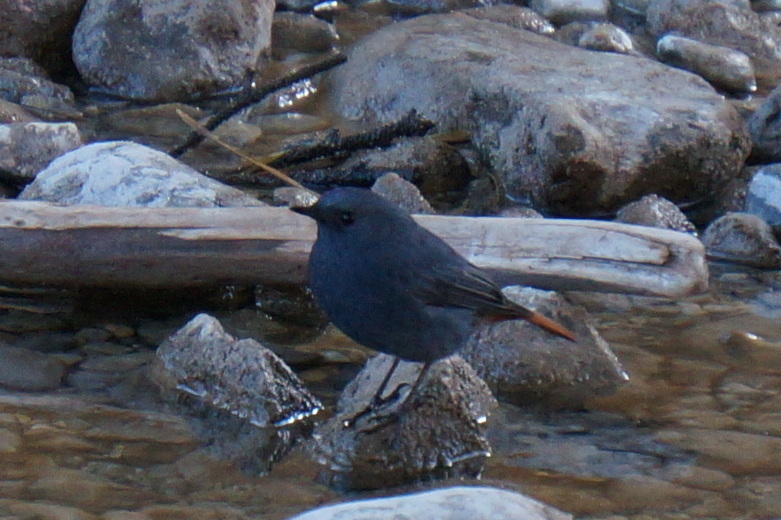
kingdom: Animalia
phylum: Chordata
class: Aves
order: Passeriformes
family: Muscicapidae
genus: Phoenicurus
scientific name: Phoenicurus fuliginosus
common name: Plumbeous water redstart
